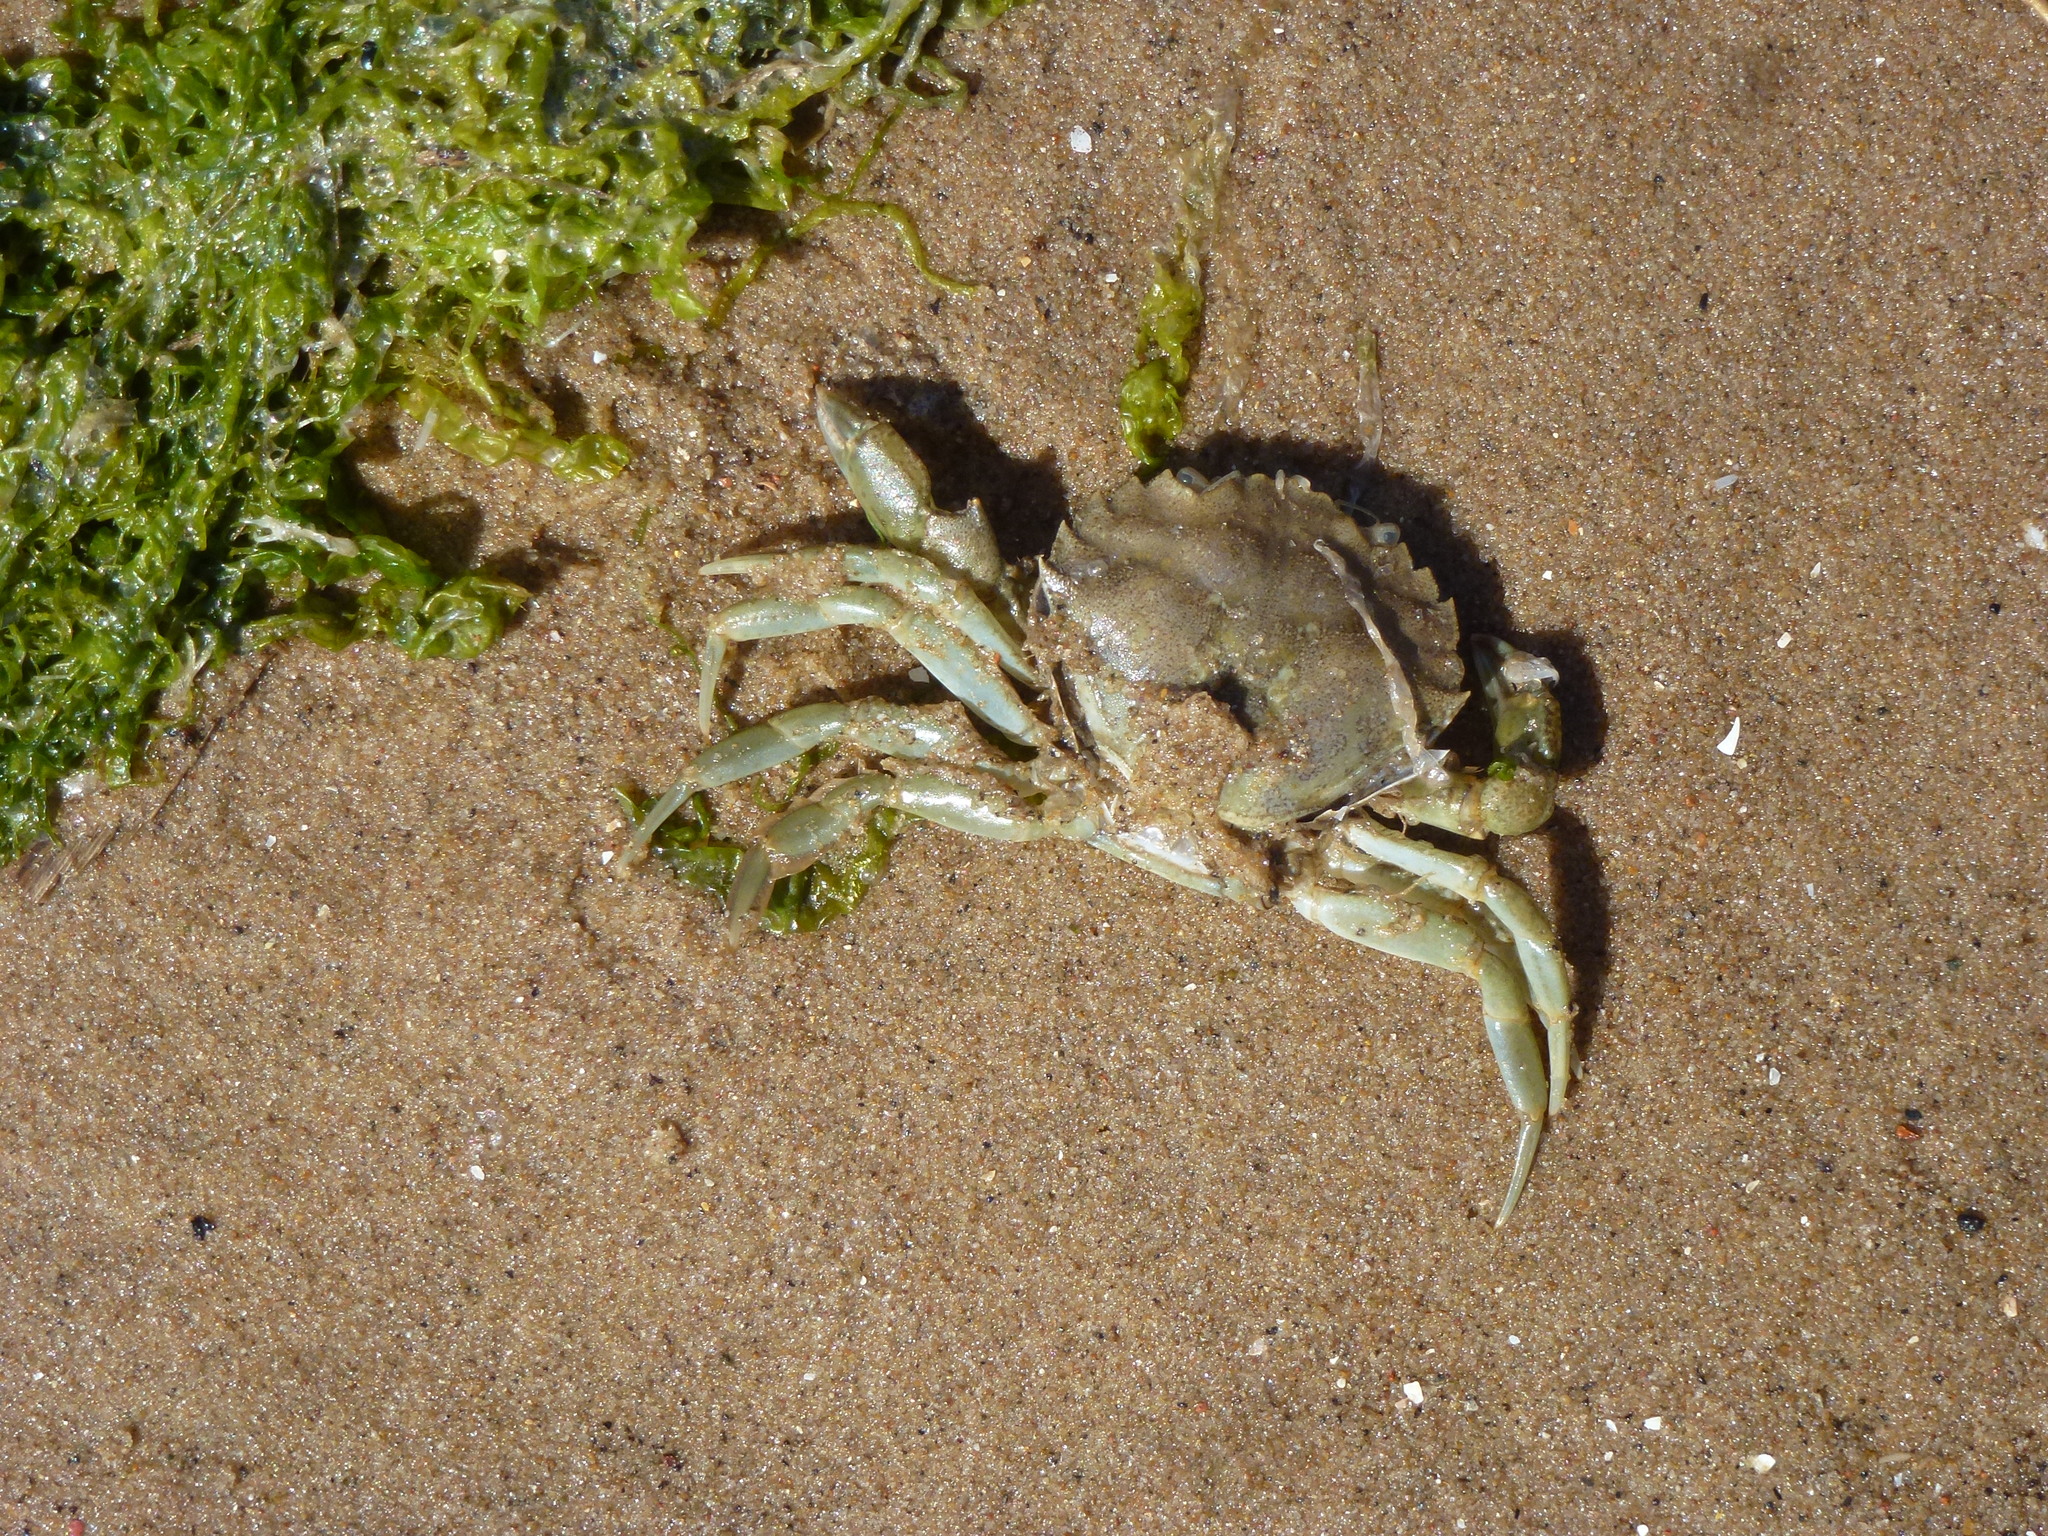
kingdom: Animalia
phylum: Arthropoda
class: Malacostraca
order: Decapoda
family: Carcinidae
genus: Carcinus
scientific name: Carcinus maenas
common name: European green crab
